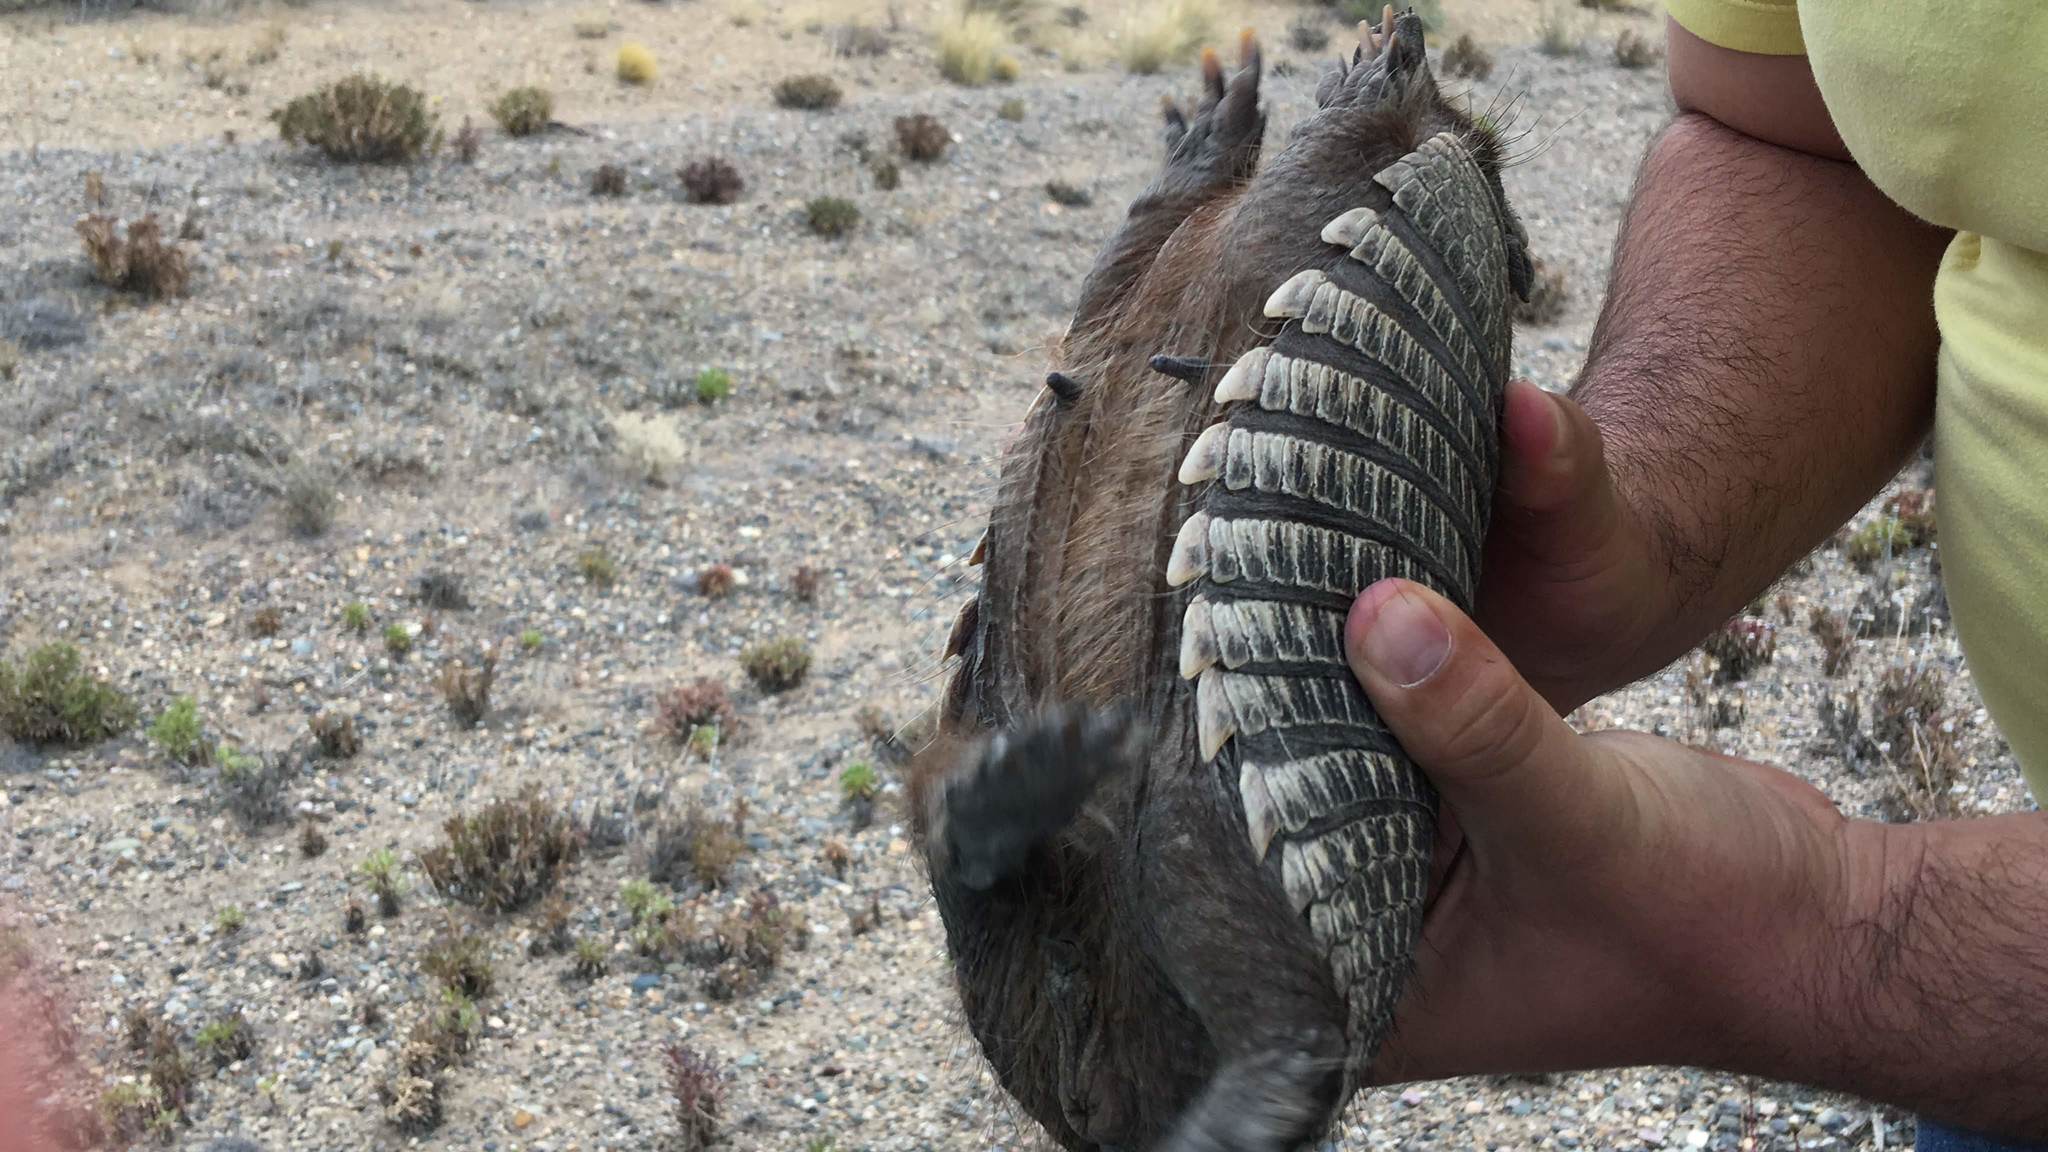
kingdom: Animalia
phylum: Chordata
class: Mammalia
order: Cingulata
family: Dasypodidae
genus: Zaedyus
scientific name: Zaedyus pichiy
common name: Pichi
